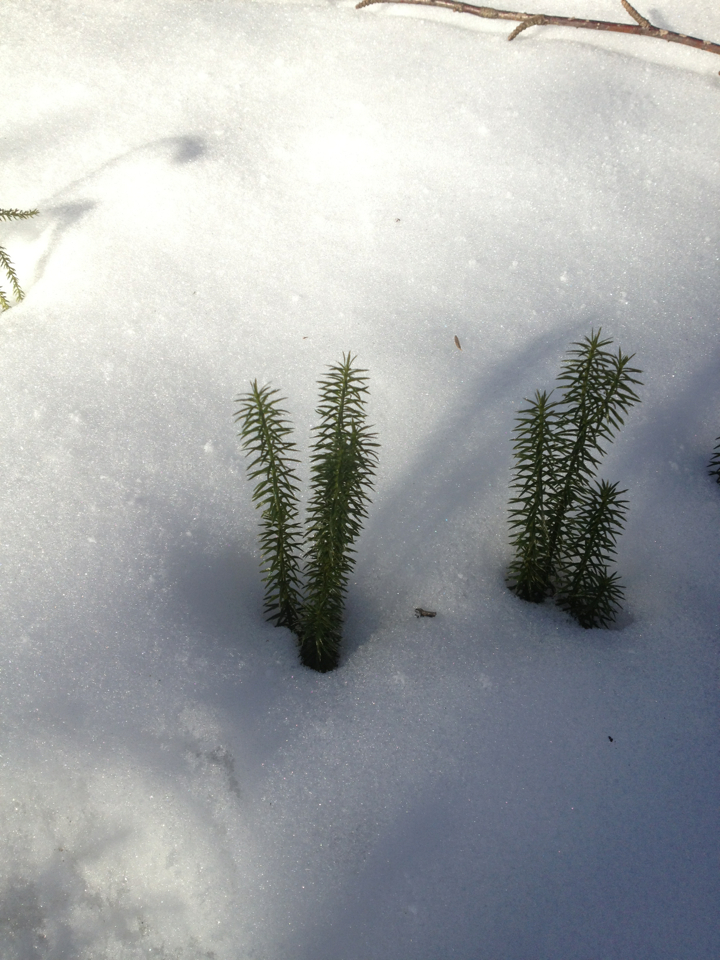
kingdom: Plantae
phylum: Tracheophyta
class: Lycopodiopsida
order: Lycopodiales
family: Lycopodiaceae
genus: Spinulum
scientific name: Spinulum annotinum
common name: Interrupted club-moss
